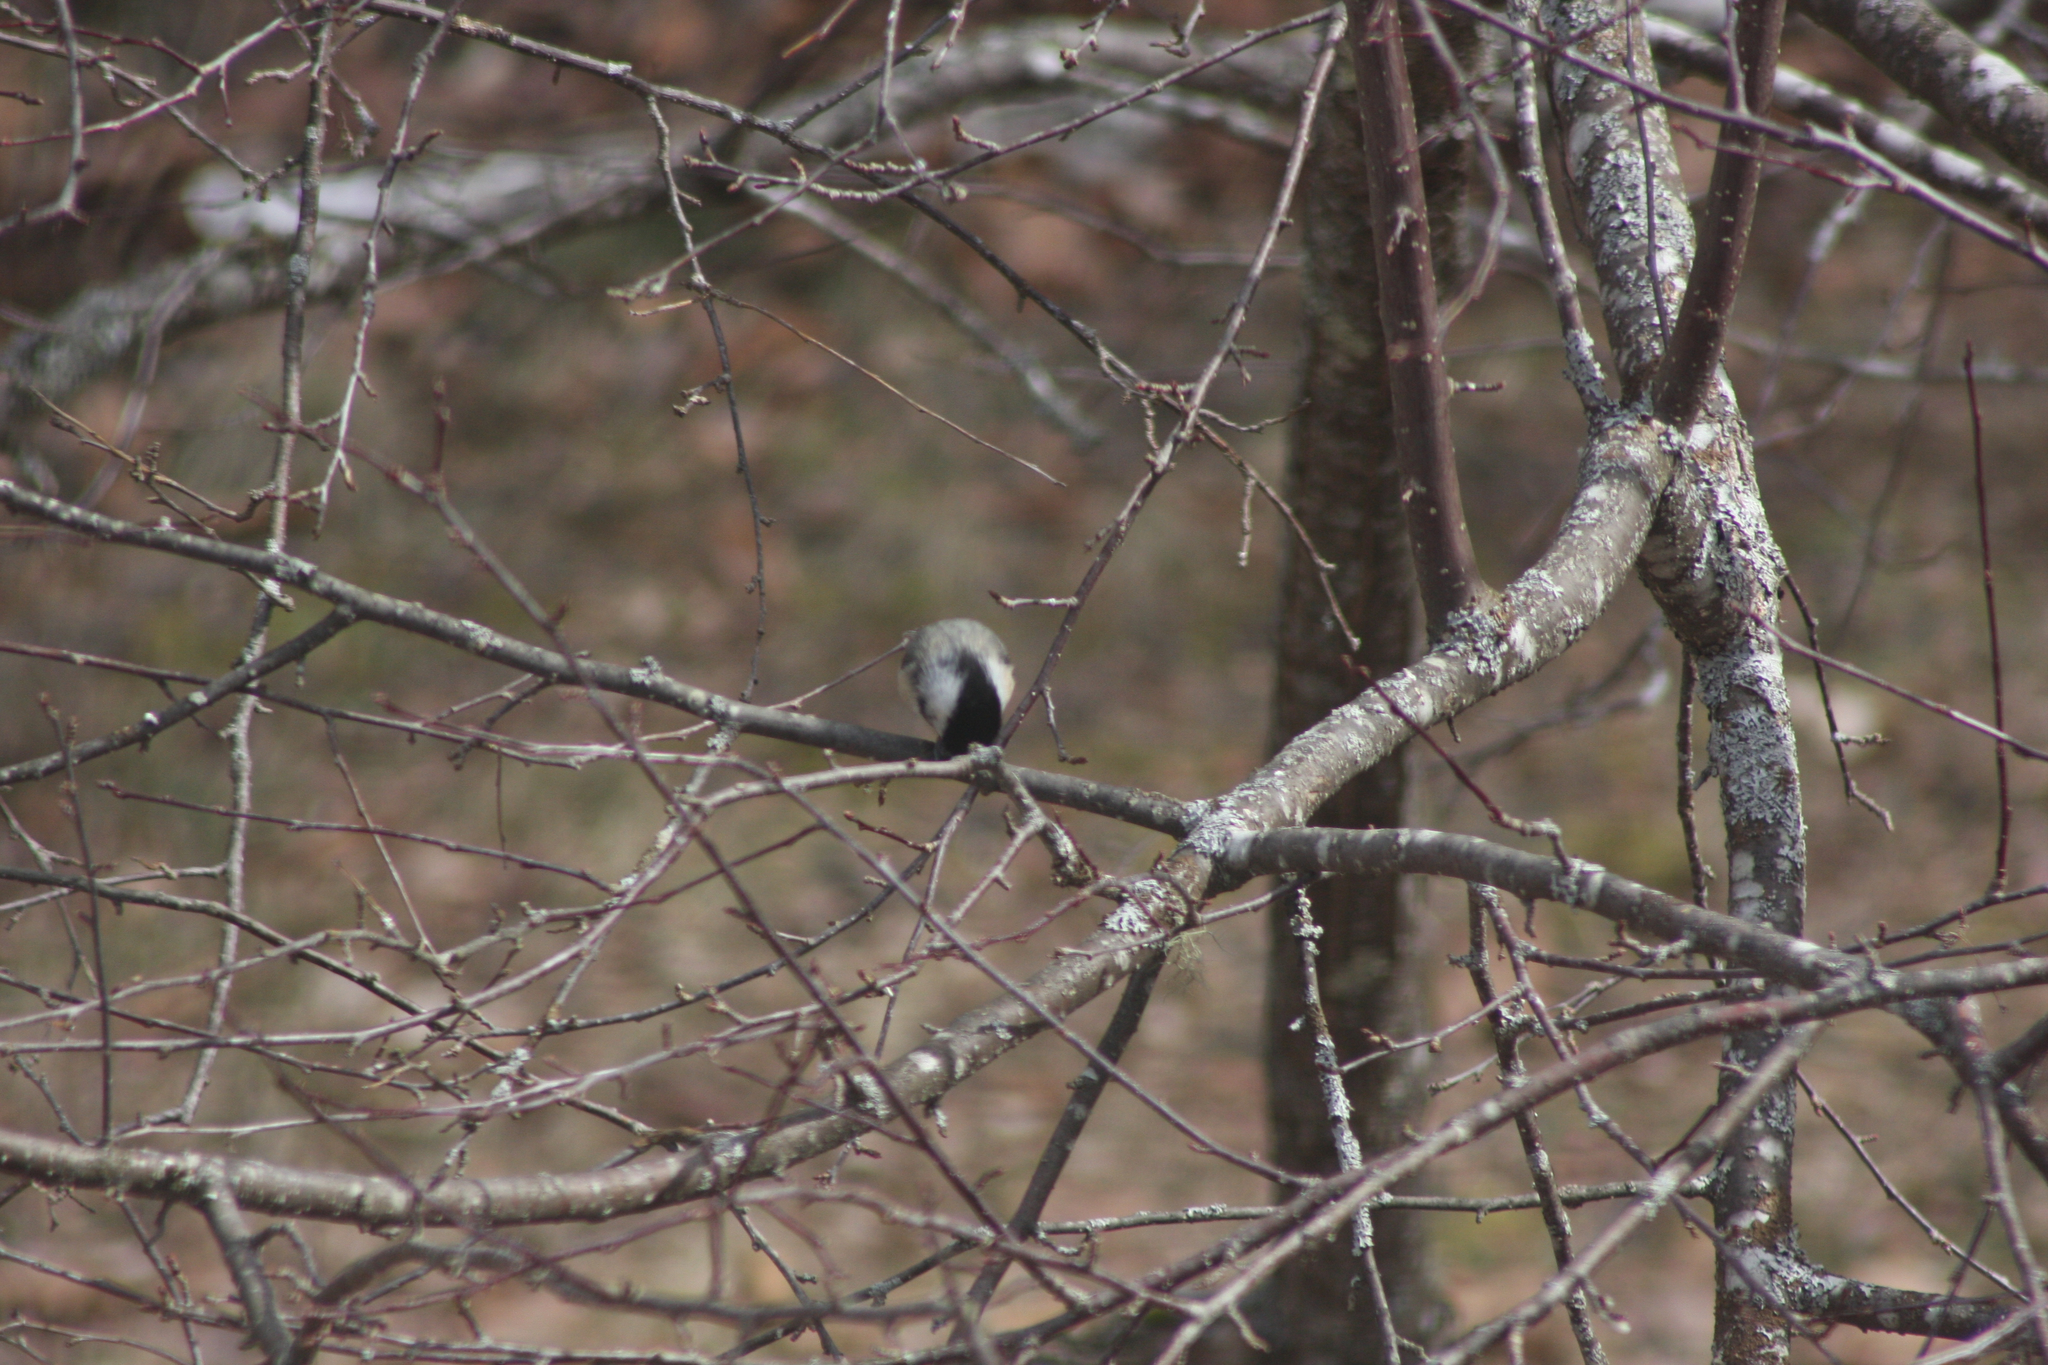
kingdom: Animalia
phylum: Chordata
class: Aves
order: Passeriformes
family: Paridae
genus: Poecile
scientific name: Poecile atricapillus
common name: Black-capped chickadee
